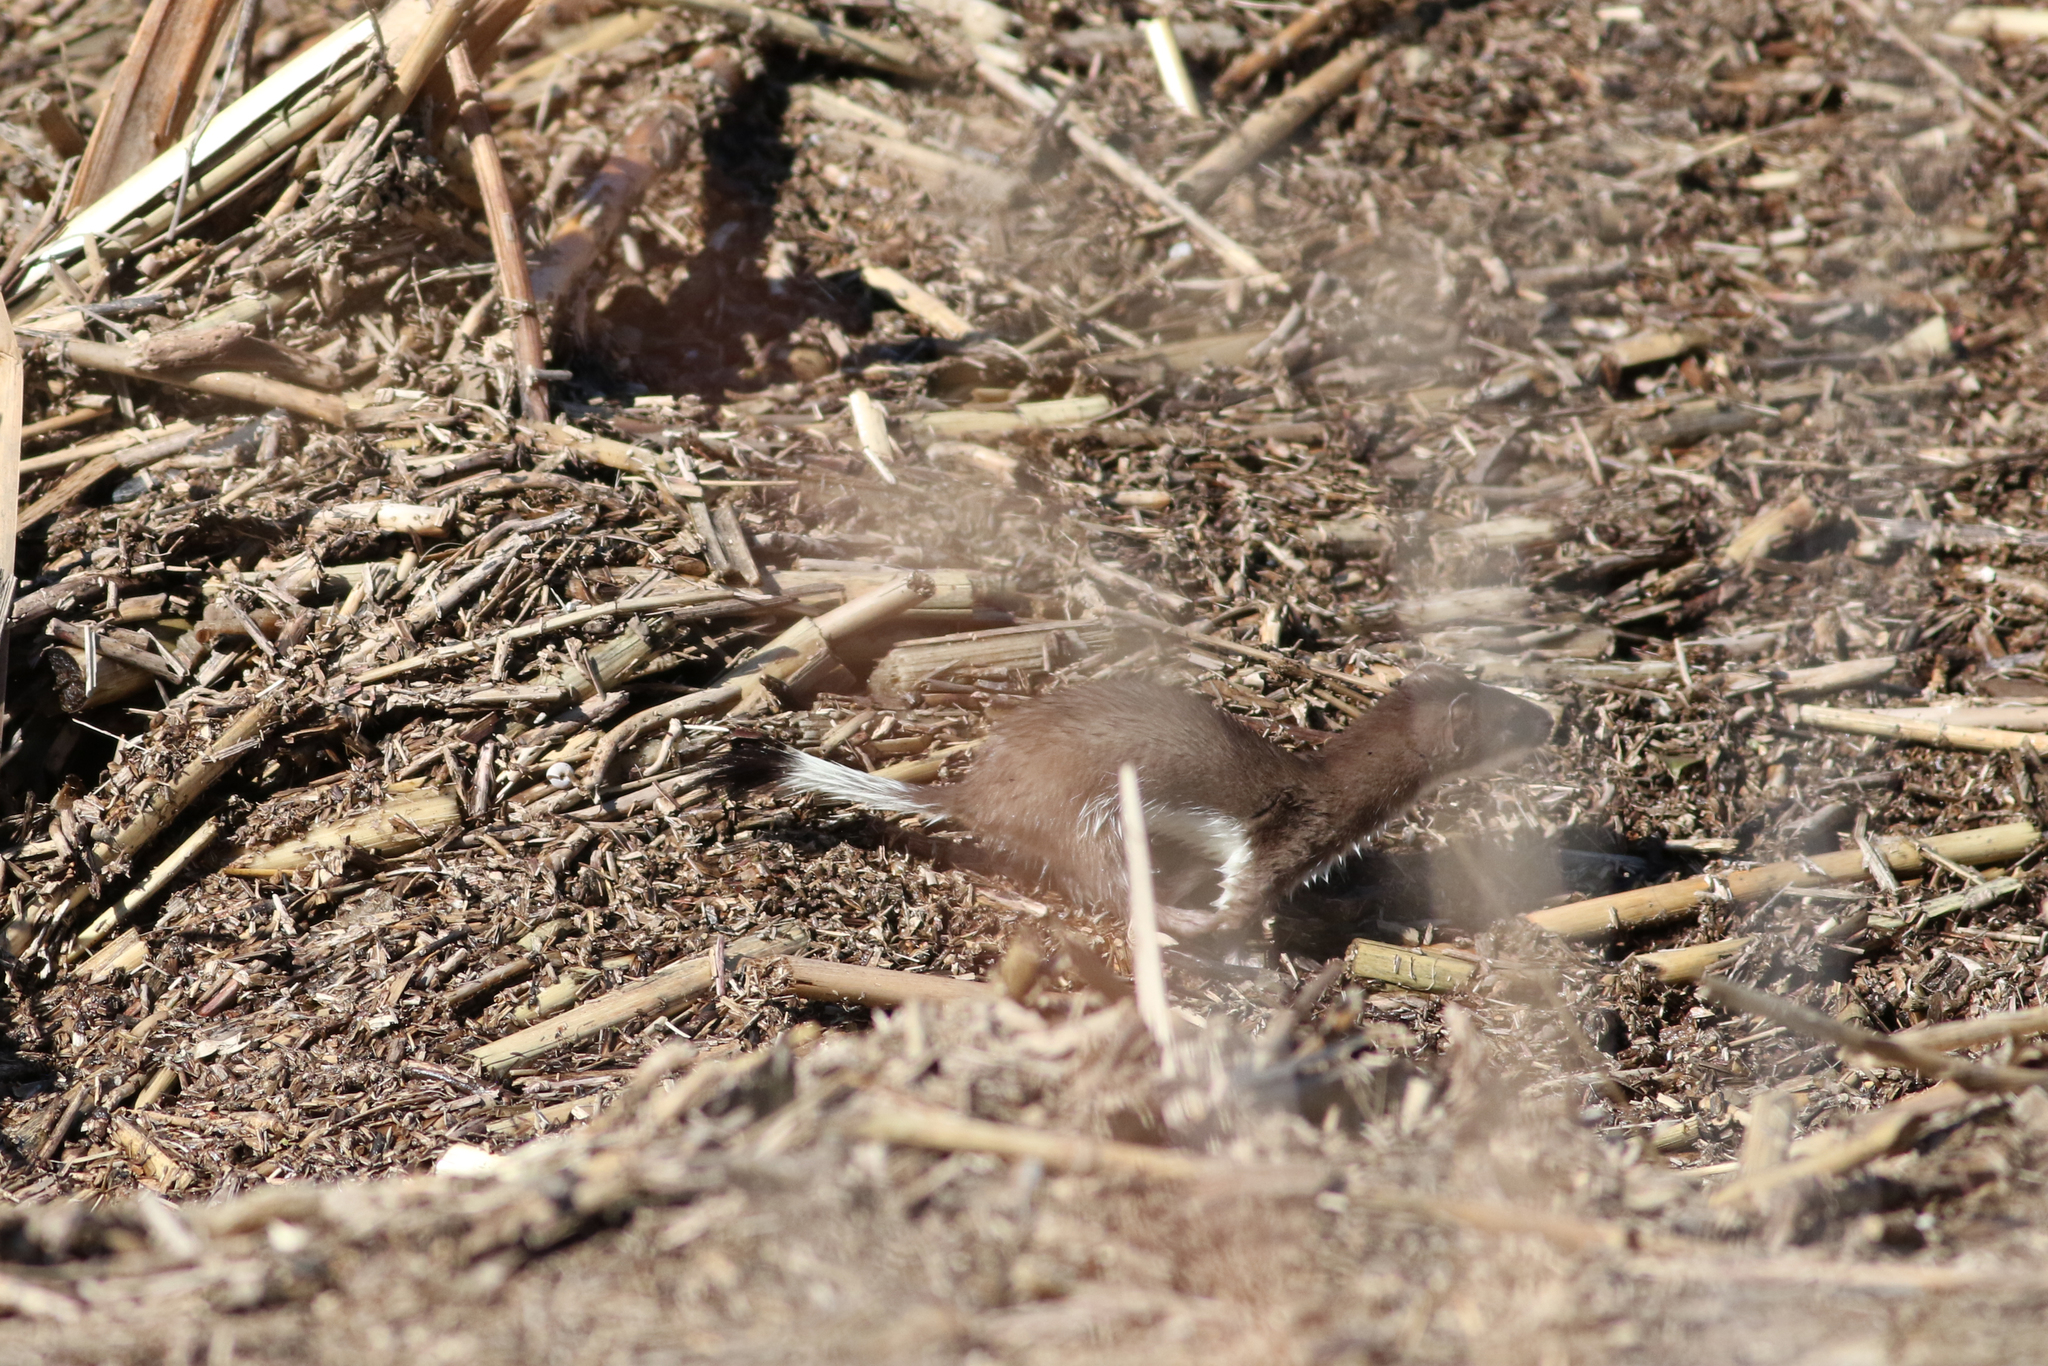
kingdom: Animalia
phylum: Chordata
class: Mammalia
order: Carnivora
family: Mustelidae
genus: Mustela
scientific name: Mustela erminea
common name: Stoat
